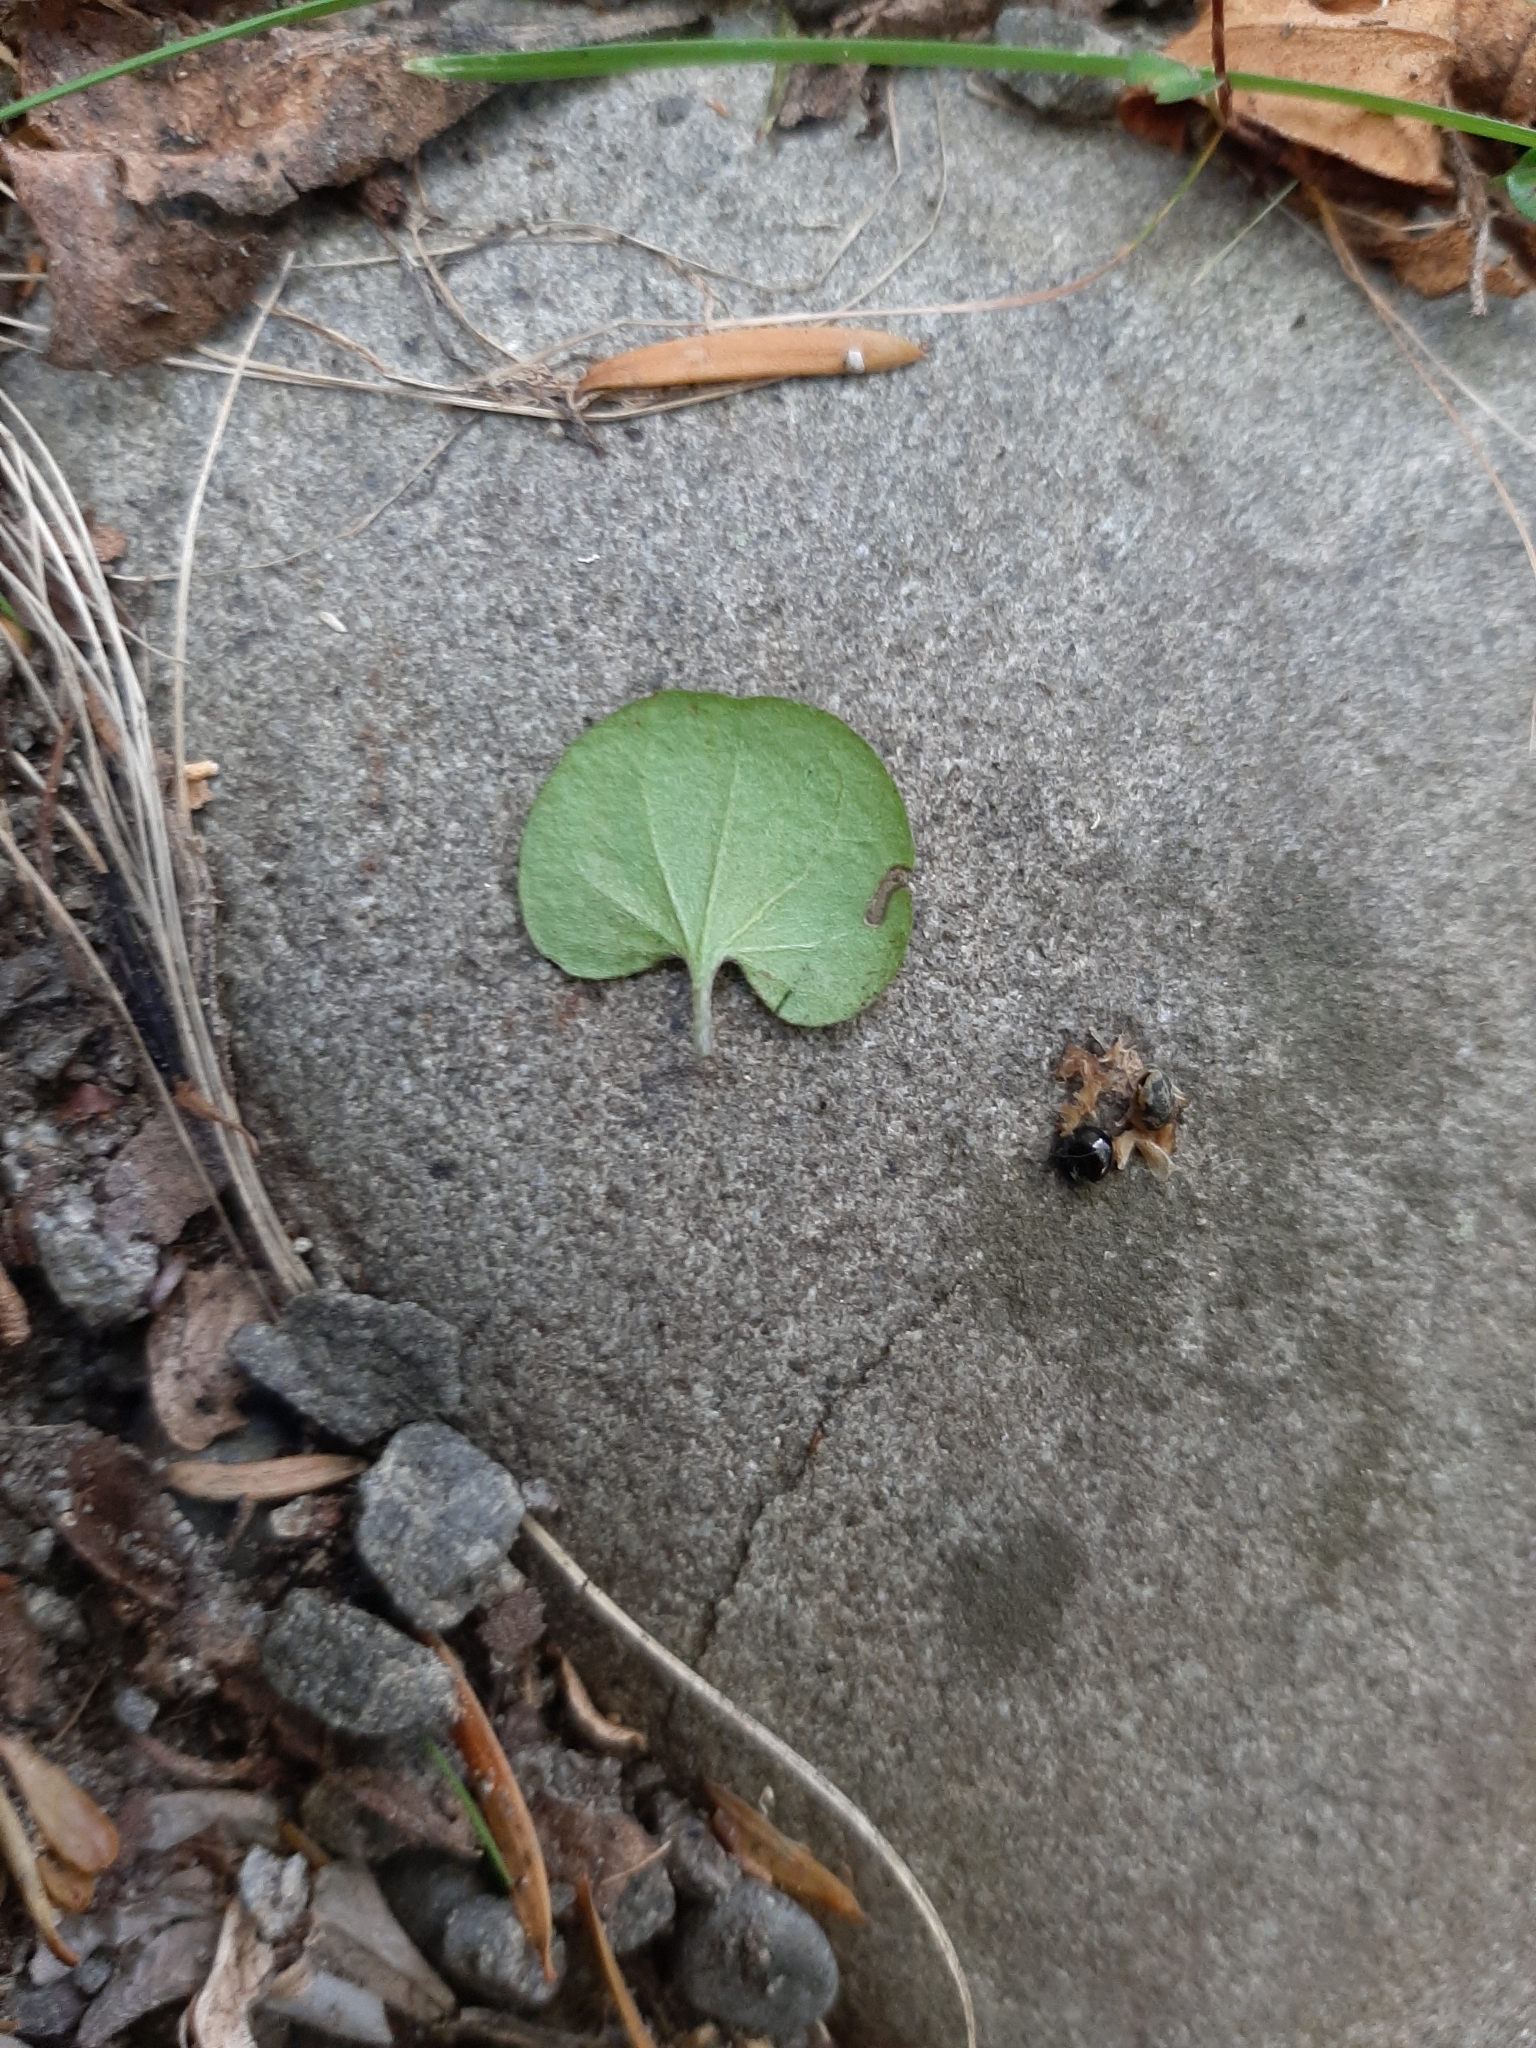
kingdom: Plantae
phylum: Tracheophyta
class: Magnoliopsida
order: Solanales
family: Convolvulaceae
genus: Dichondra
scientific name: Dichondra micrantha
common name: Kidneyweed
